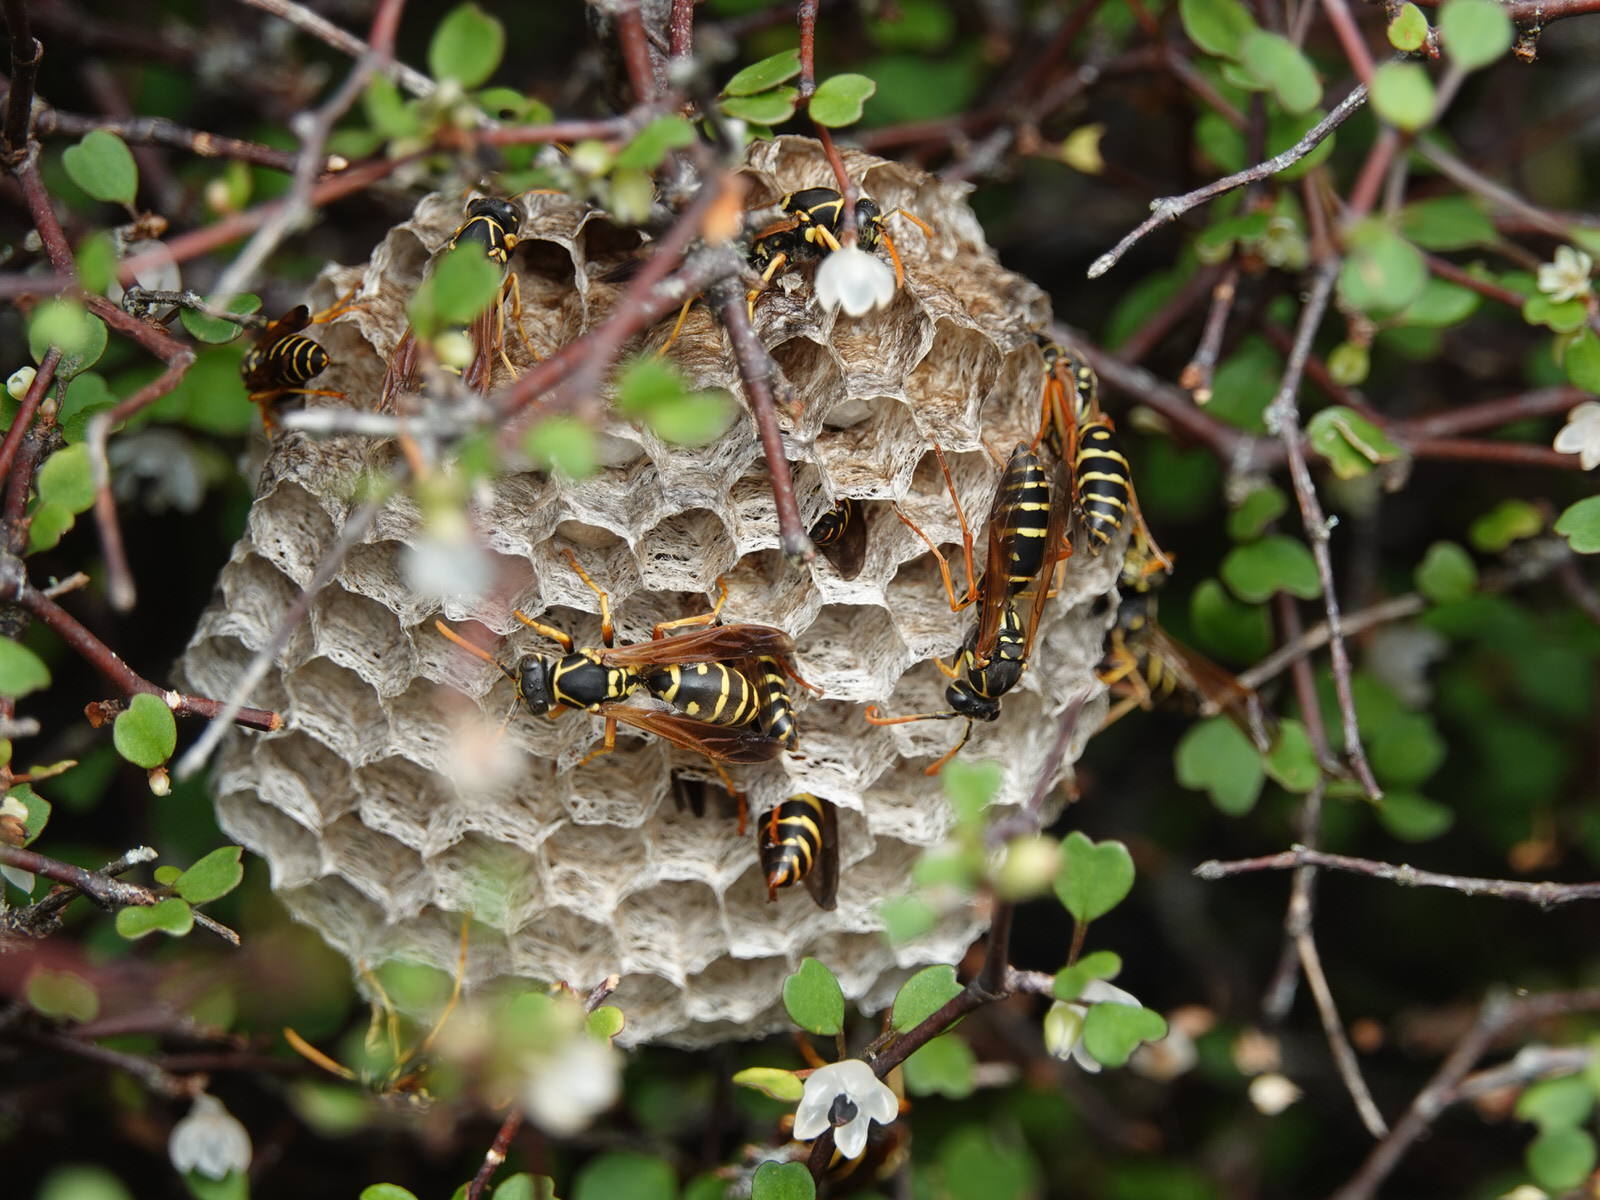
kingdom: Animalia
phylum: Arthropoda
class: Insecta
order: Hymenoptera
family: Eumenidae
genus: Polistes
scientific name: Polistes chinensis
